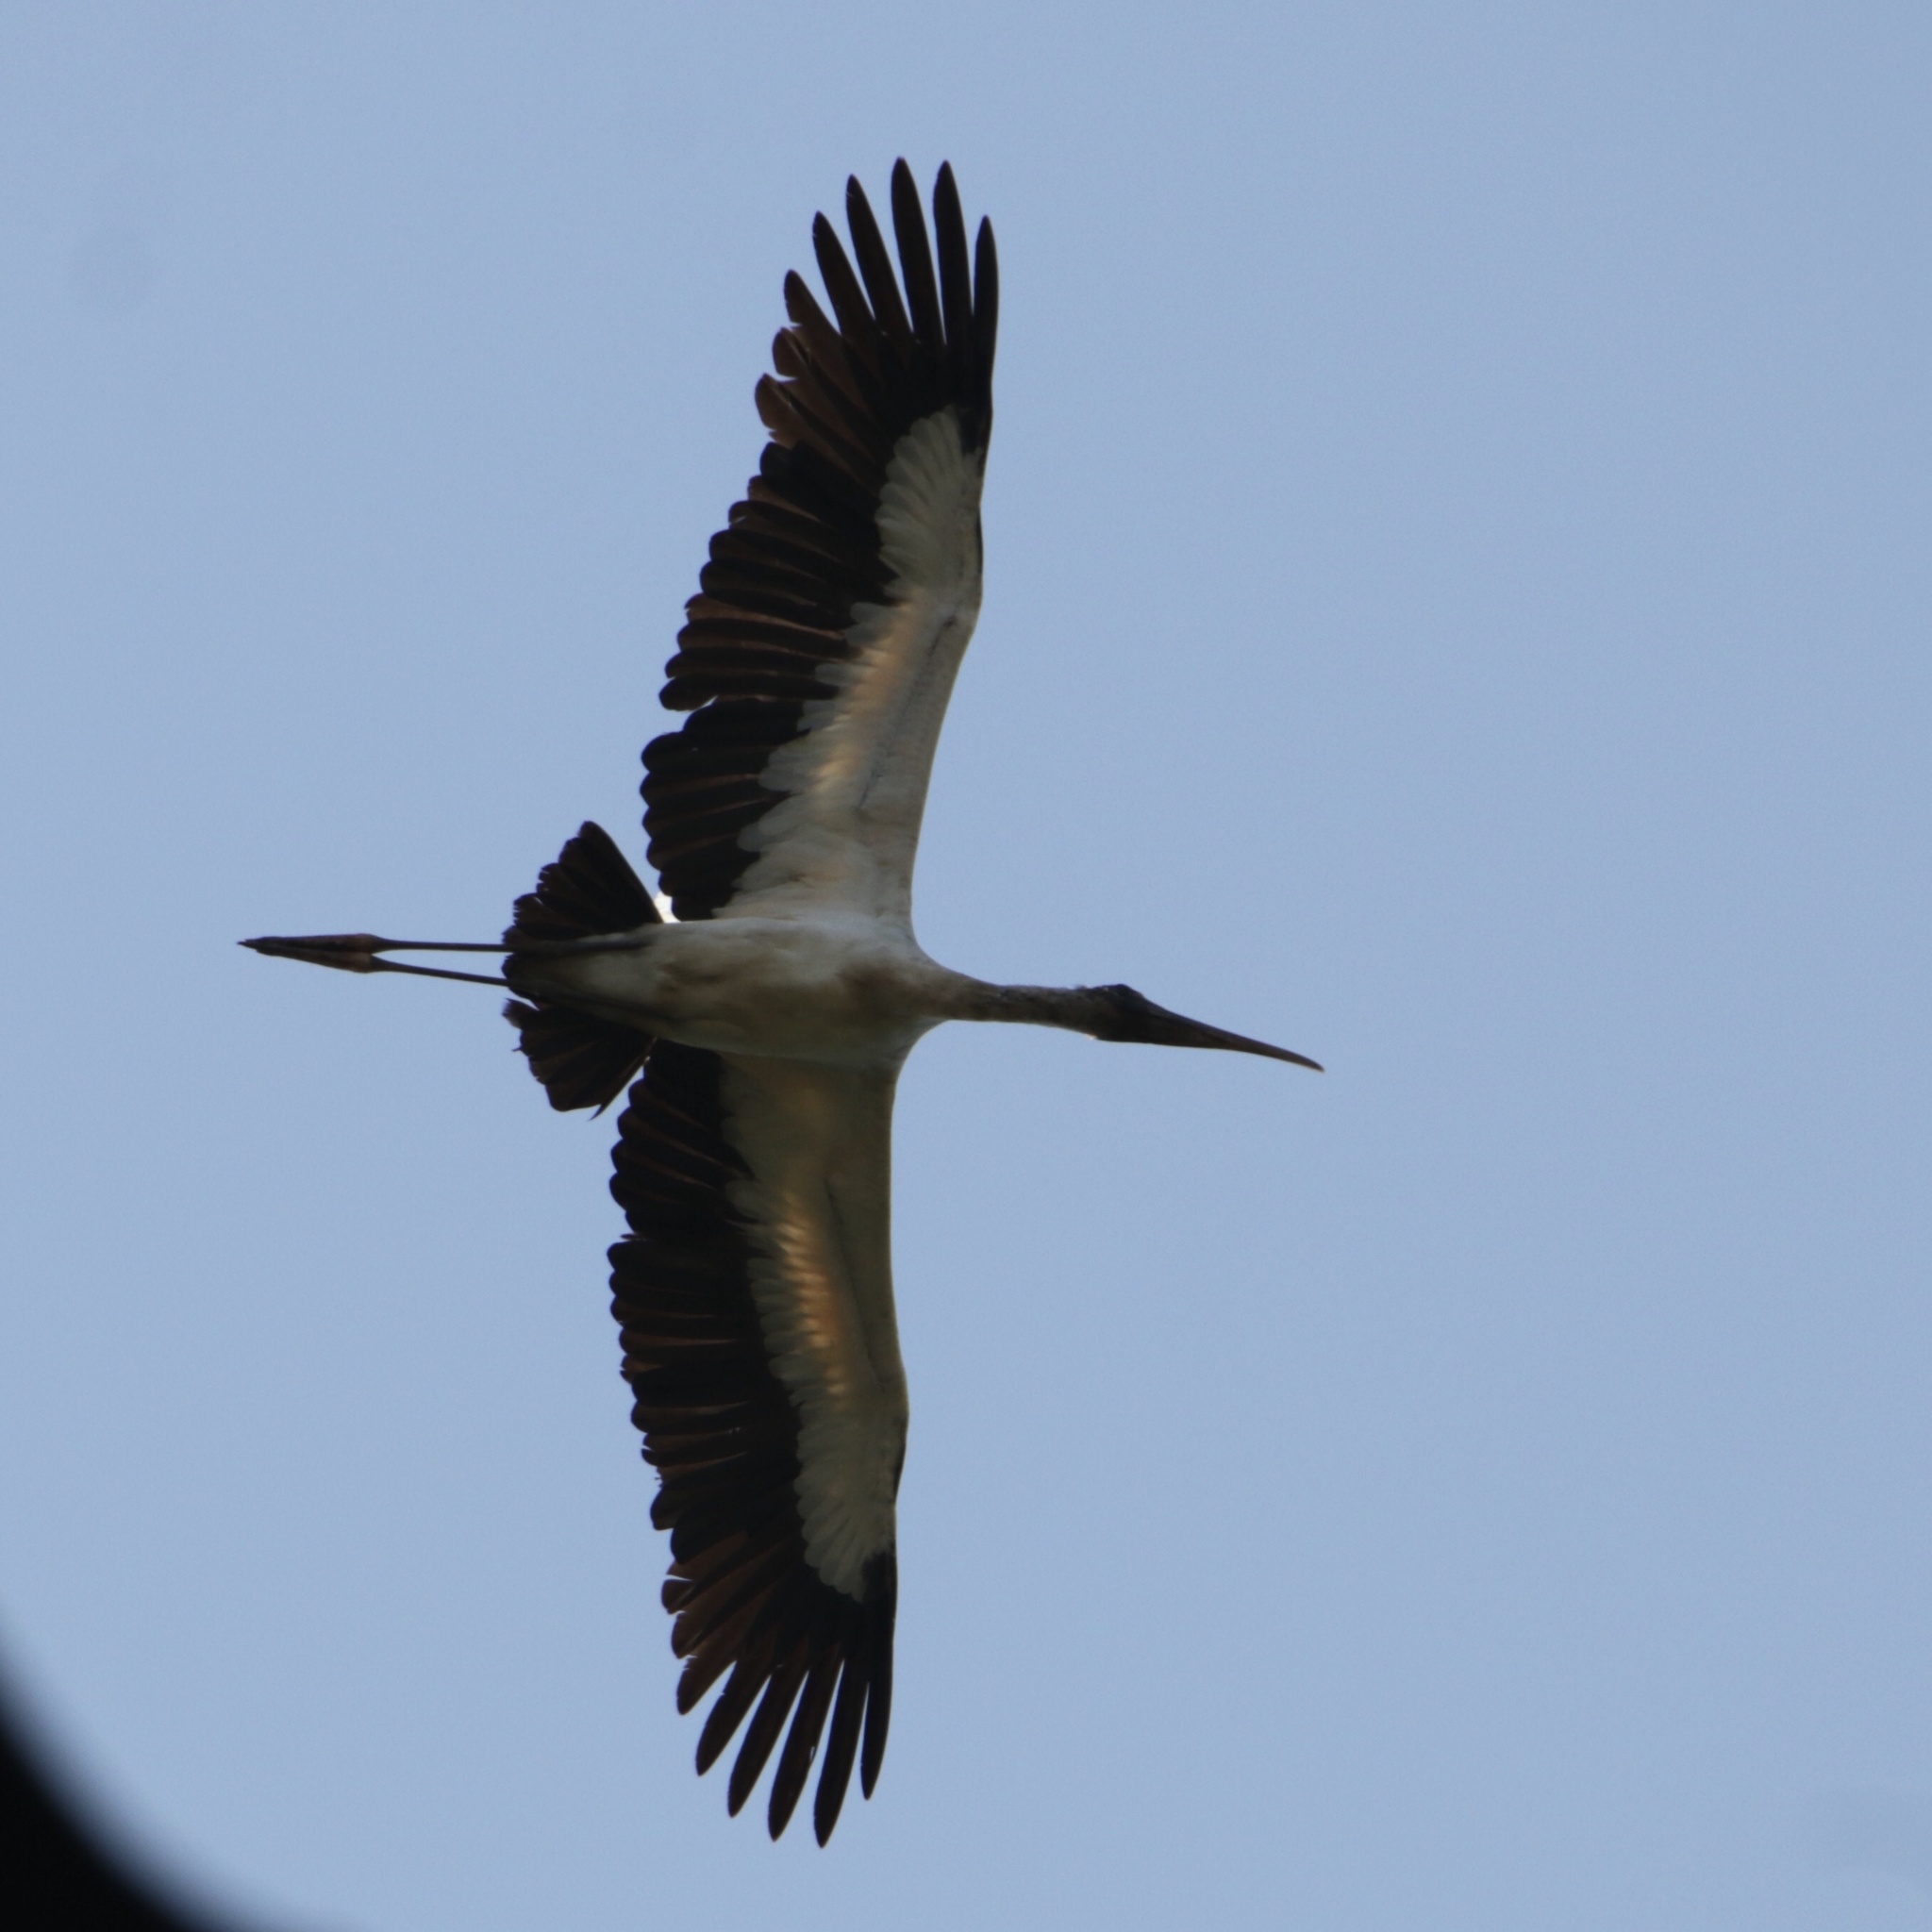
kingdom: Animalia
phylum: Chordata
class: Aves
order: Ciconiiformes
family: Ciconiidae
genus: Mycteria
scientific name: Mycteria americana
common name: Wood stork
